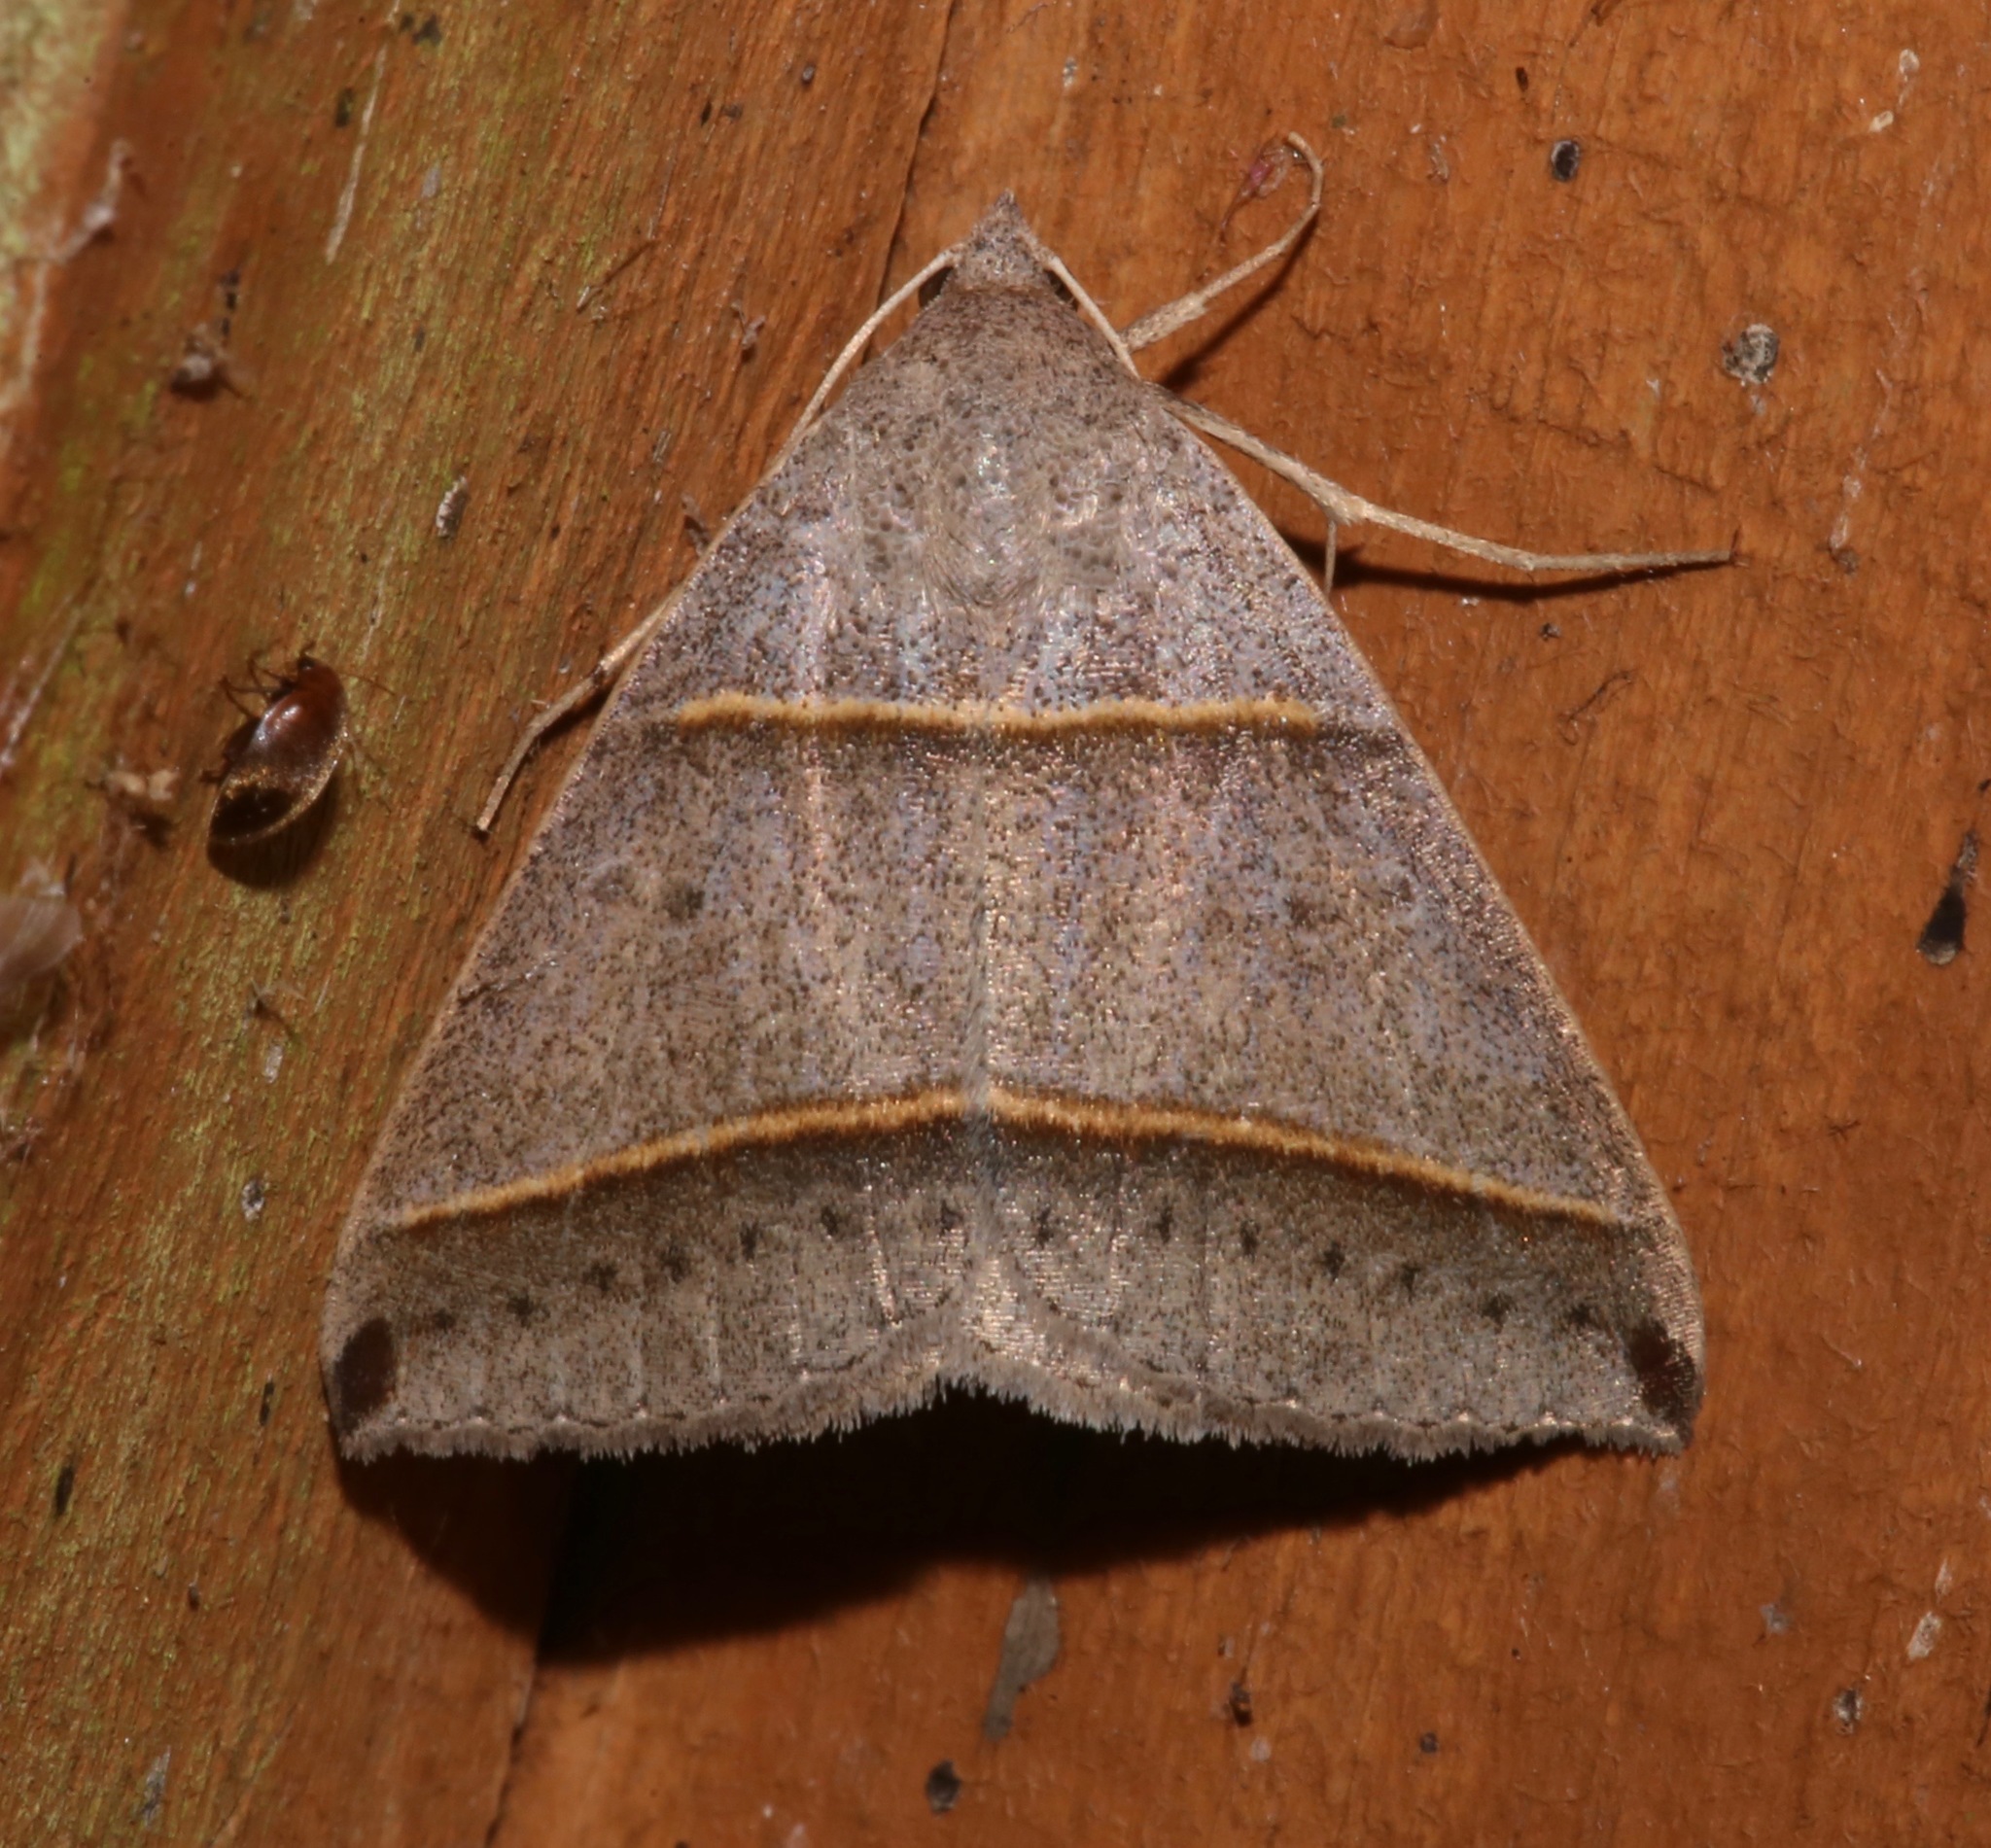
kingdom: Animalia
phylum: Arthropoda
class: Insecta
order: Lepidoptera
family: Erebidae
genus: Ptichodis
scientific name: Ptichodis vinculum
